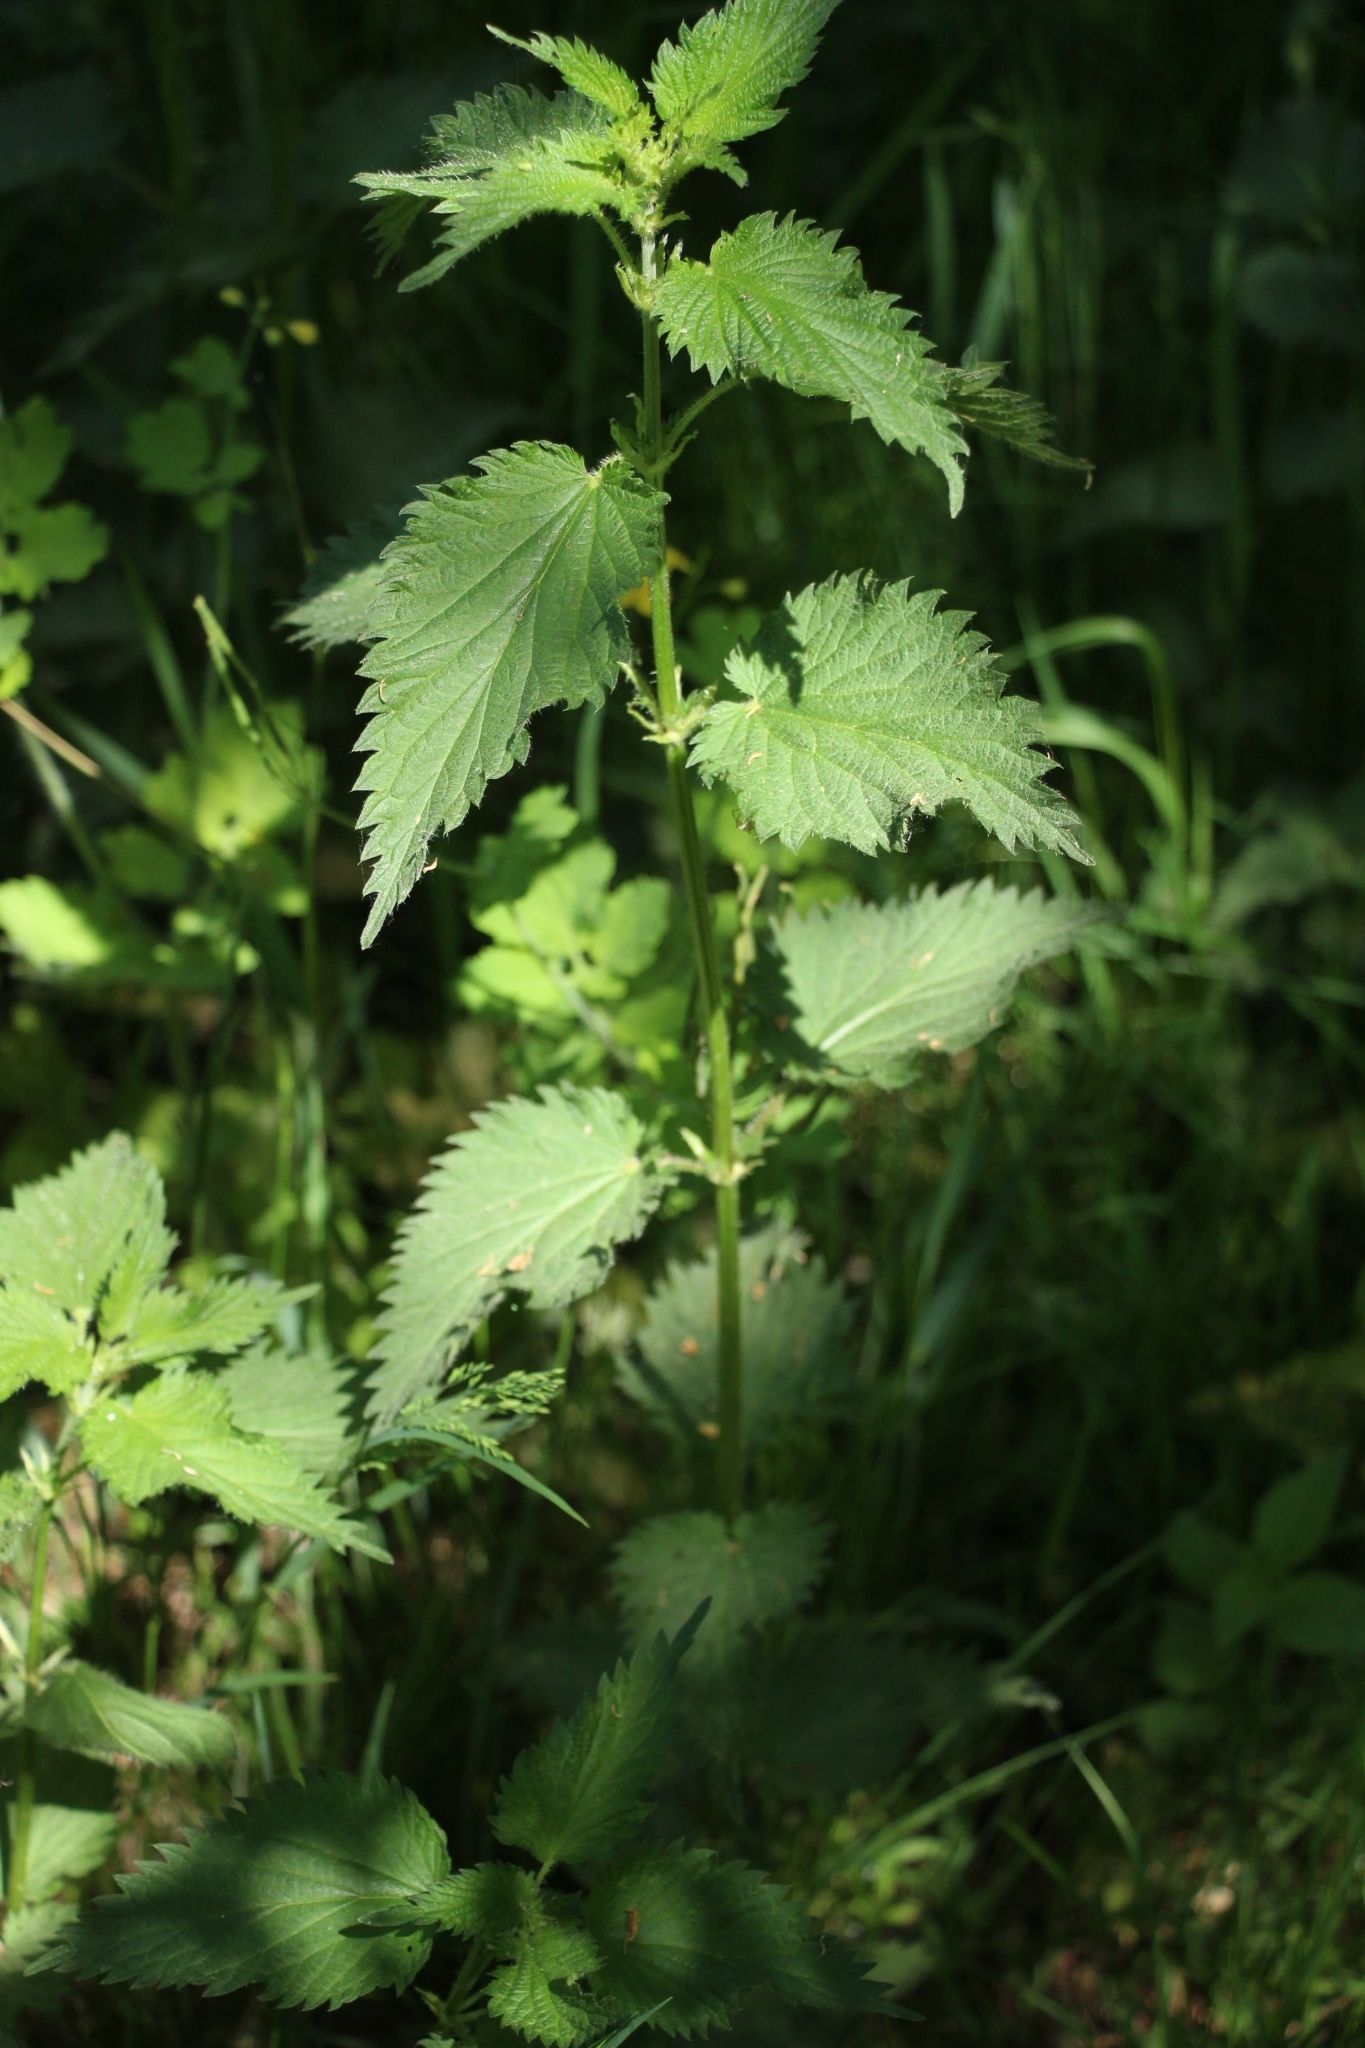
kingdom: Plantae
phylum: Tracheophyta
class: Magnoliopsida
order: Rosales
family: Urticaceae
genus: Urtica
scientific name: Urtica dioica
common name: Common nettle
